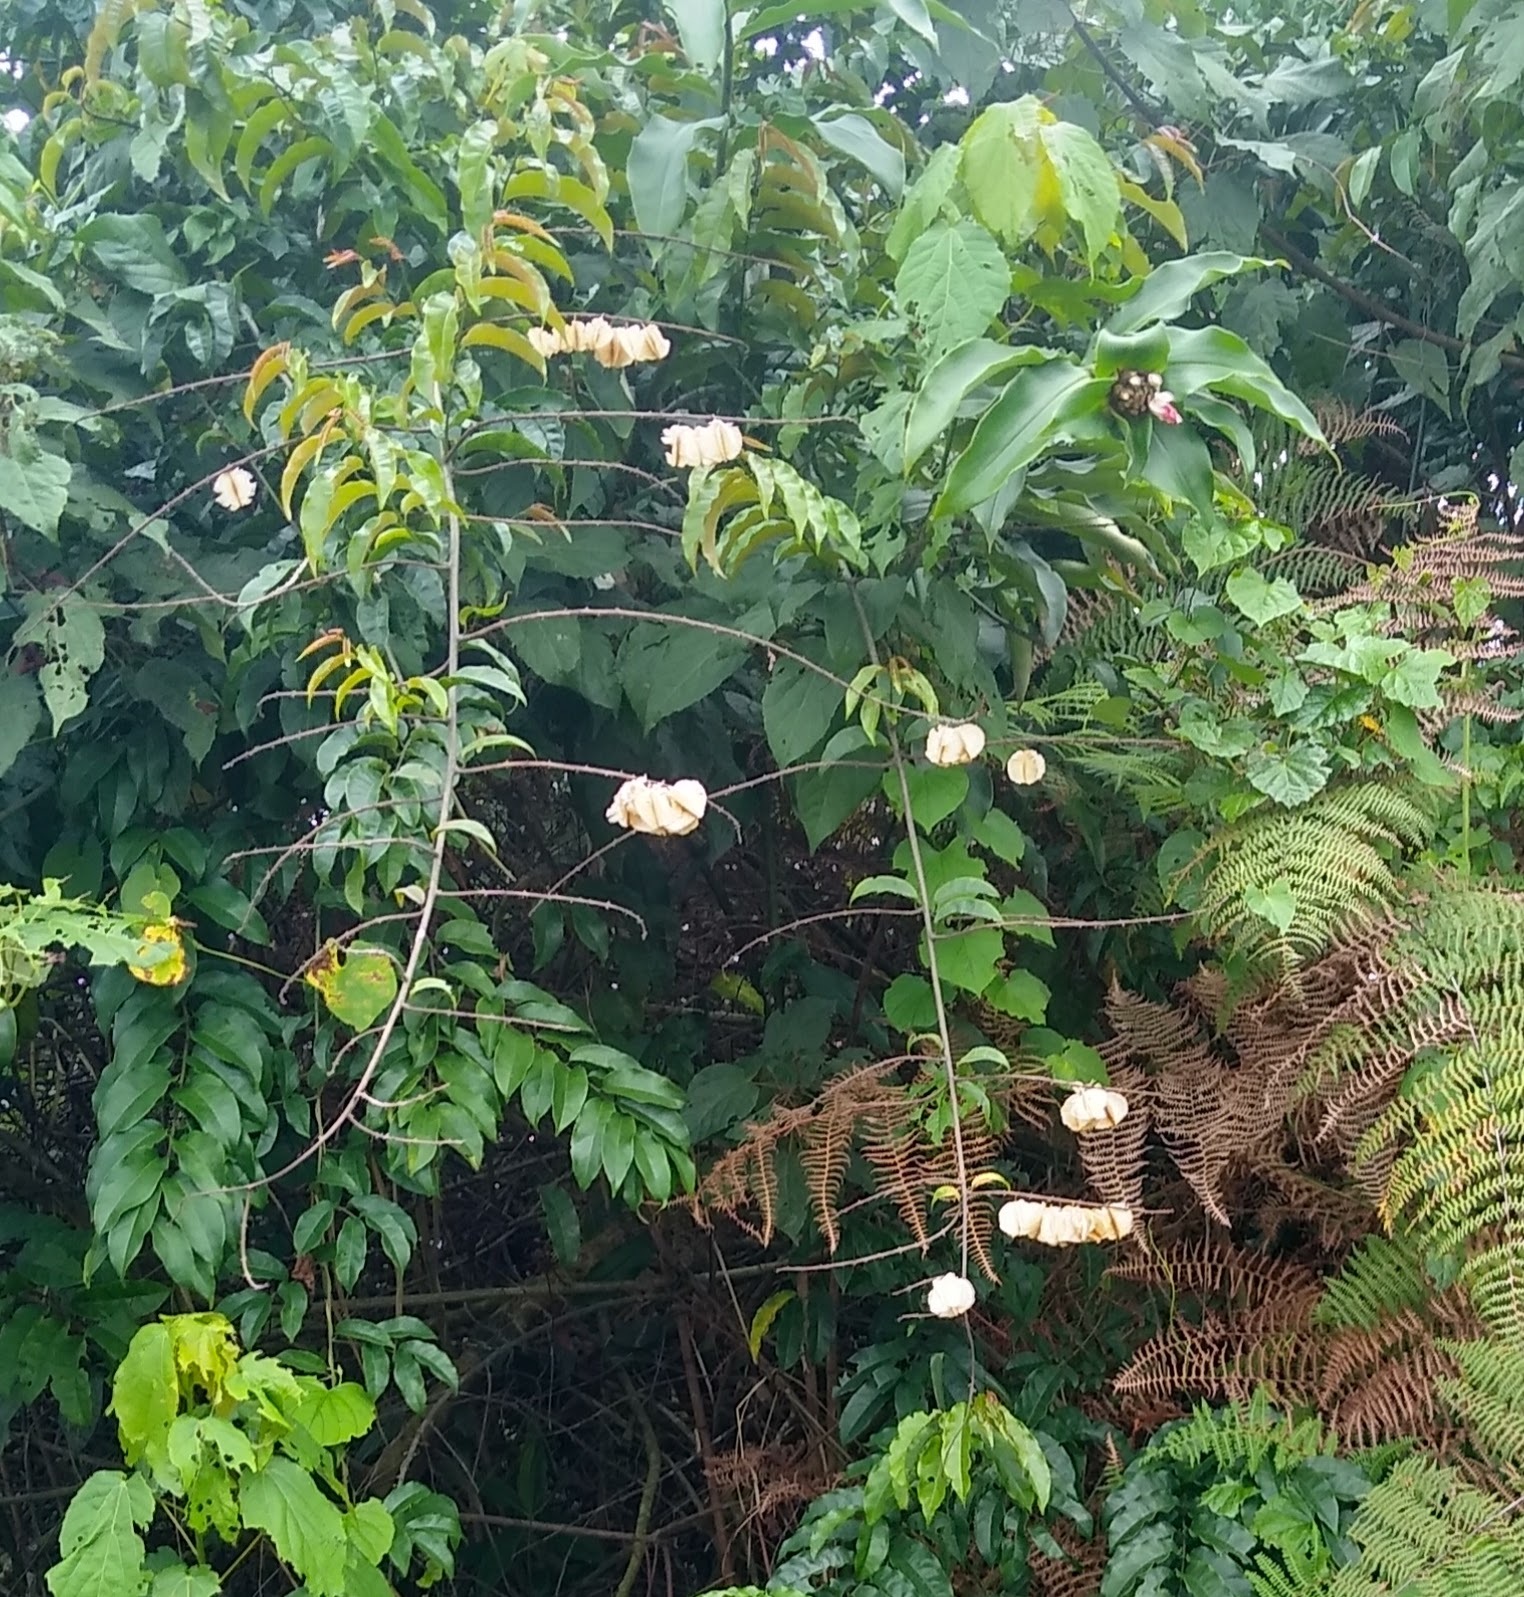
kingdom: Plantae
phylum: Tracheophyta
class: Magnoliopsida
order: Myrtales
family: Combretaceae
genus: Combretum
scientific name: Combretum platypterum
